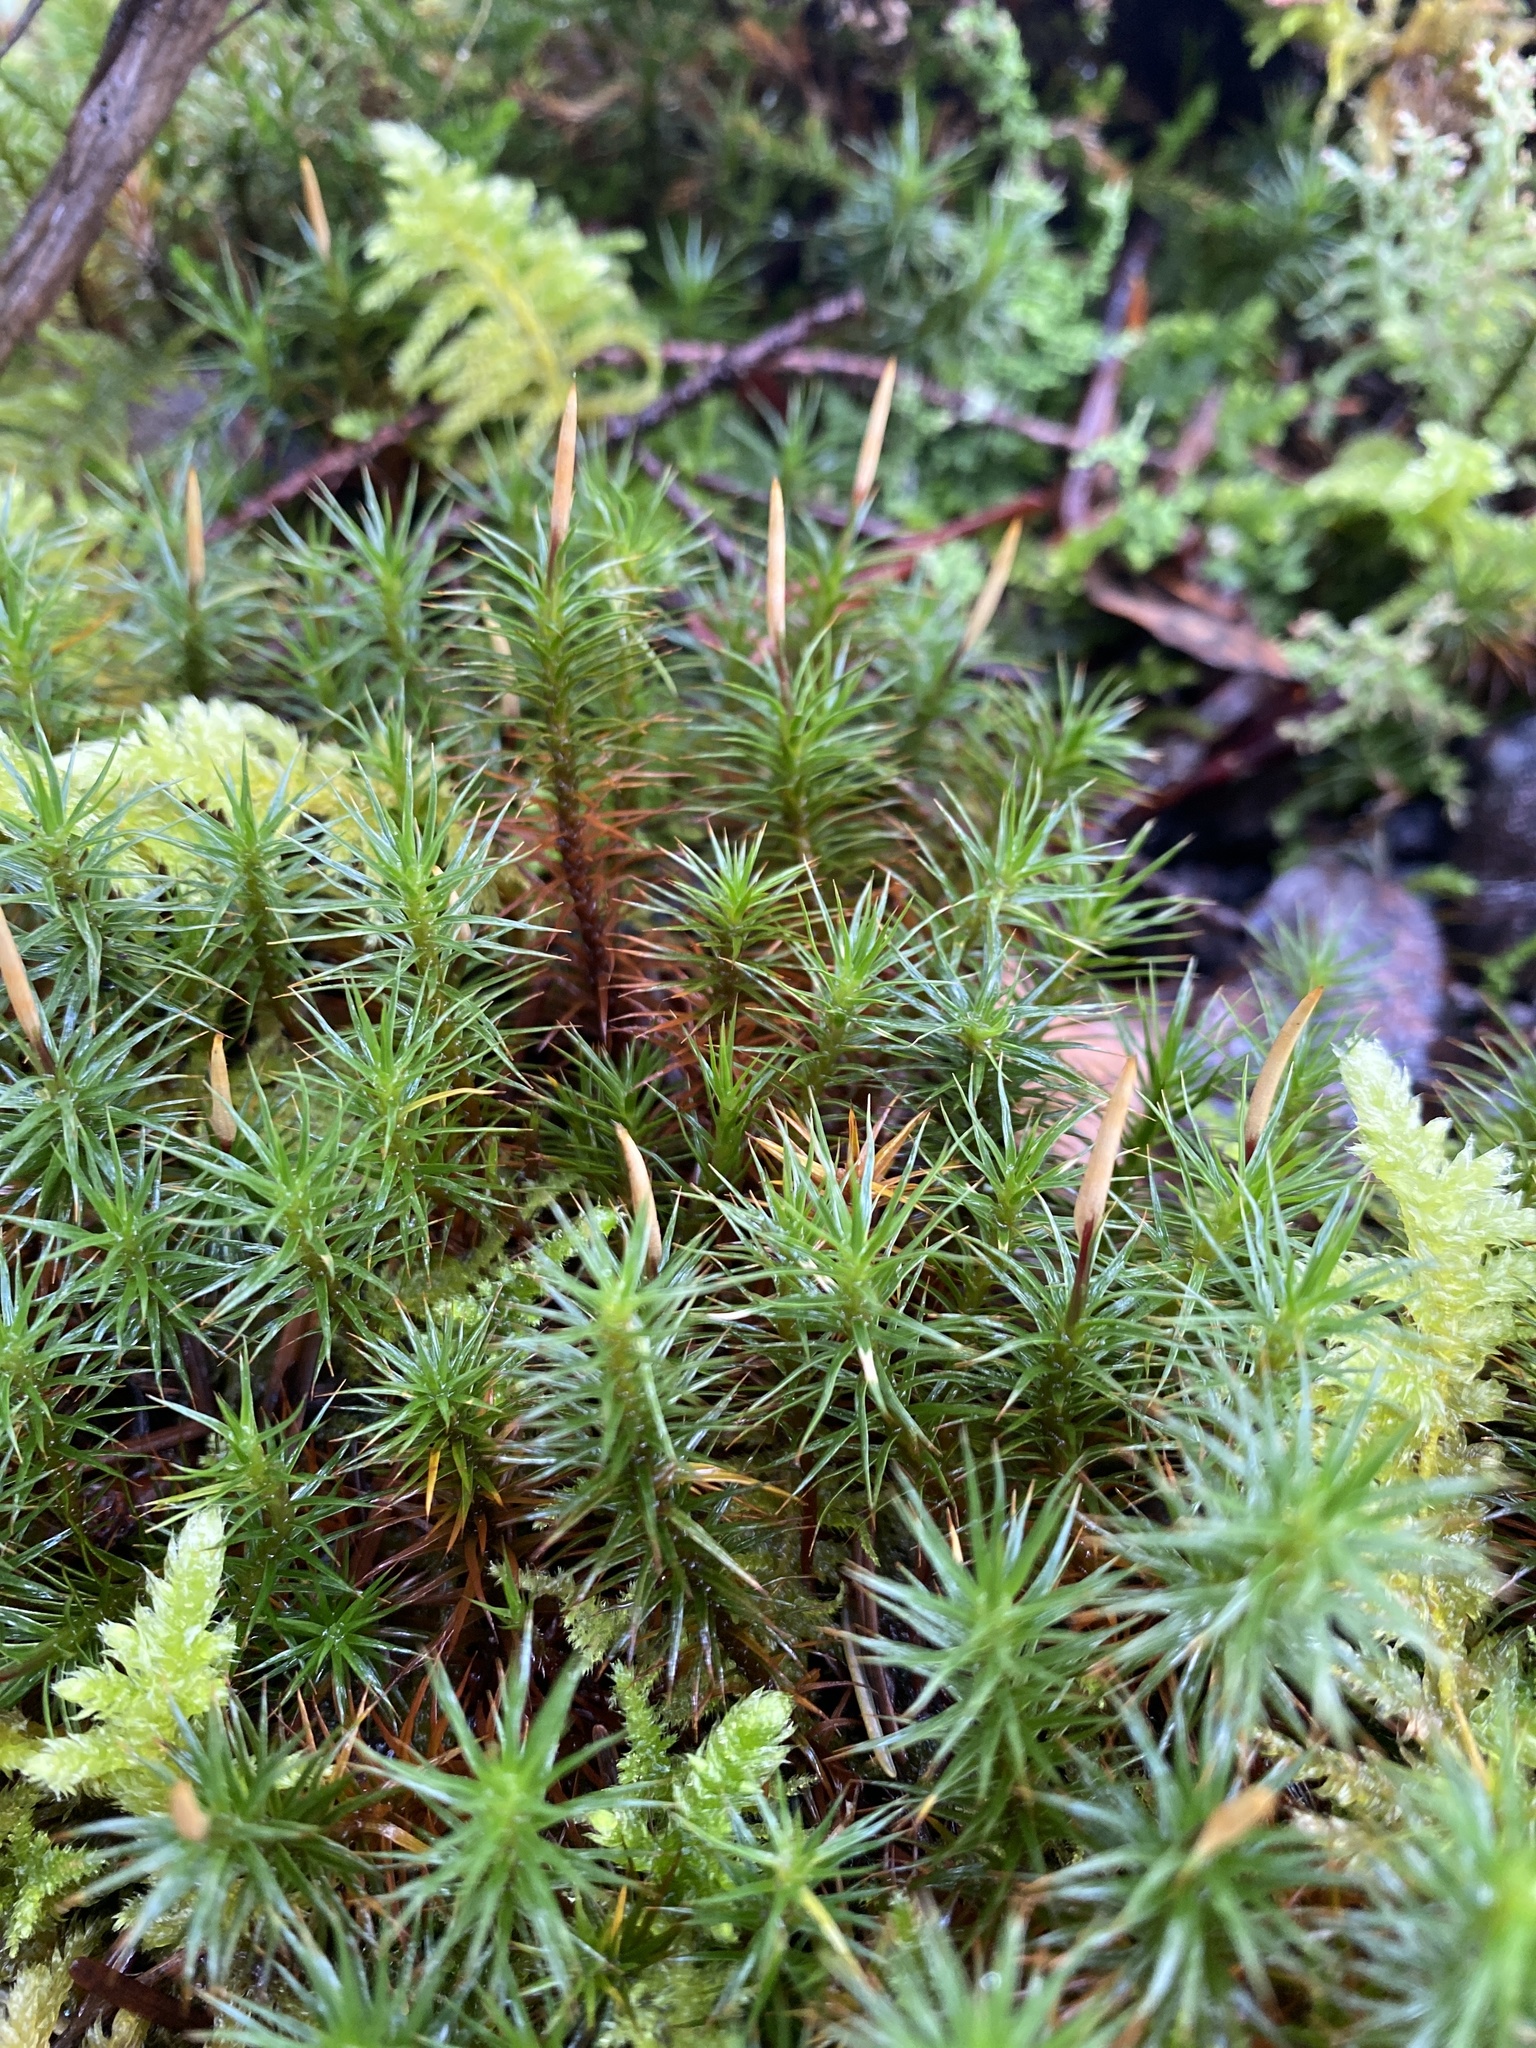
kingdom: Plantae
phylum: Bryophyta
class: Polytrichopsida
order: Polytrichales
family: Polytrichaceae
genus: Polytrichum
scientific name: Polytrichum juniperinum
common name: Juniper haircap moss
